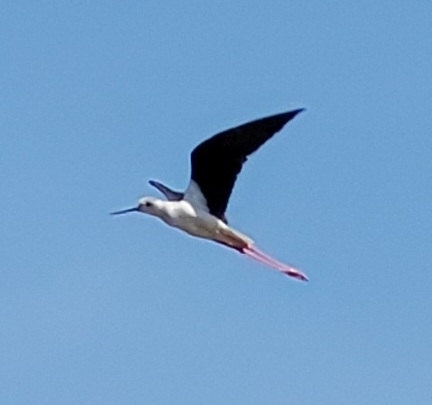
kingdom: Animalia
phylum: Chordata
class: Aves
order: Charadriiformes
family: Recurvirostridae
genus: Himantopus
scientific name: Himantopus himantopus
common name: Black-winged stilt
